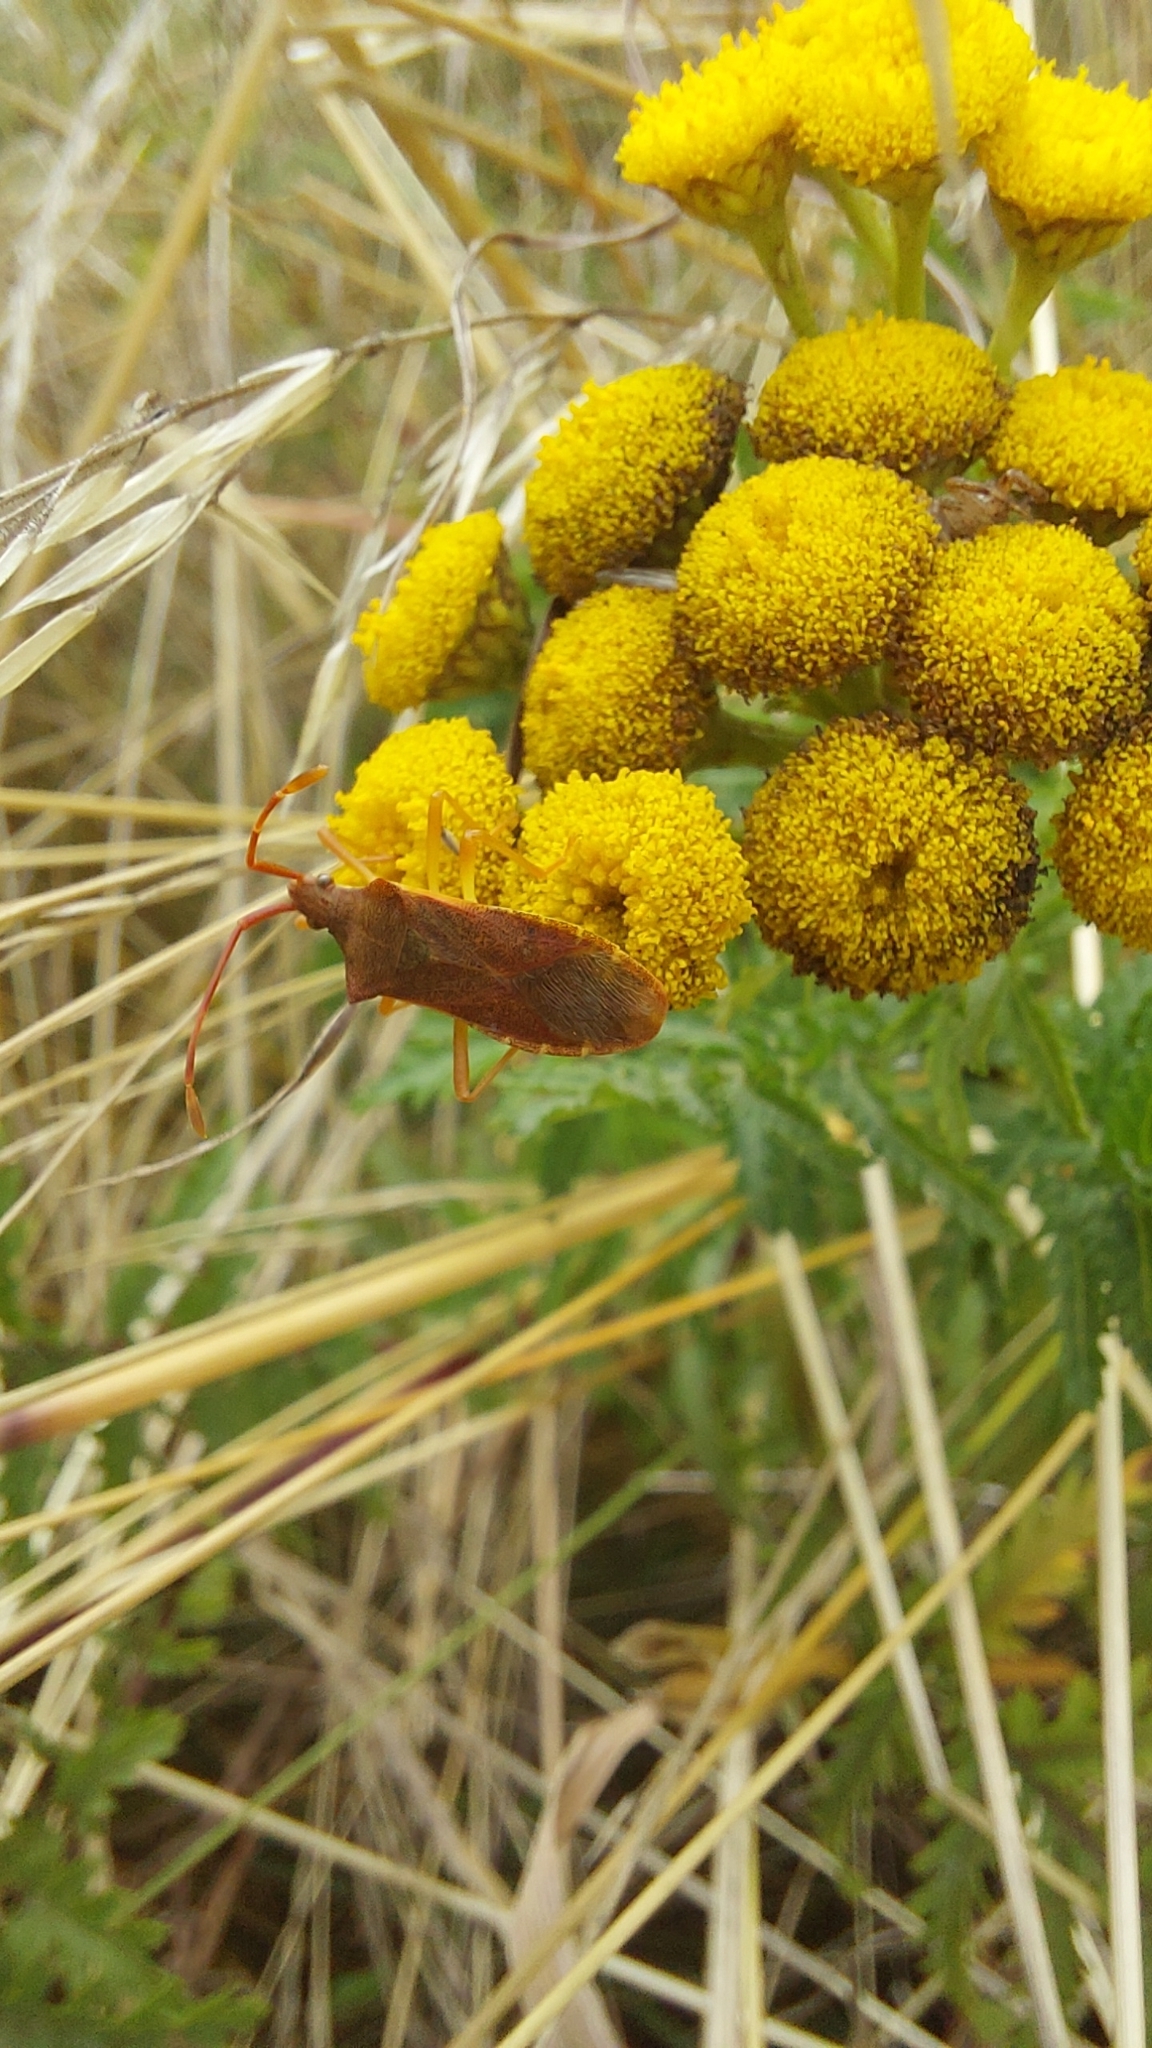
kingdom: Animalia
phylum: Arthropoda
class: Insecta
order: Hemiptera
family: Coreidae
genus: Gonocerus
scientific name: Gonocerus acuteangulatus
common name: Box bug
